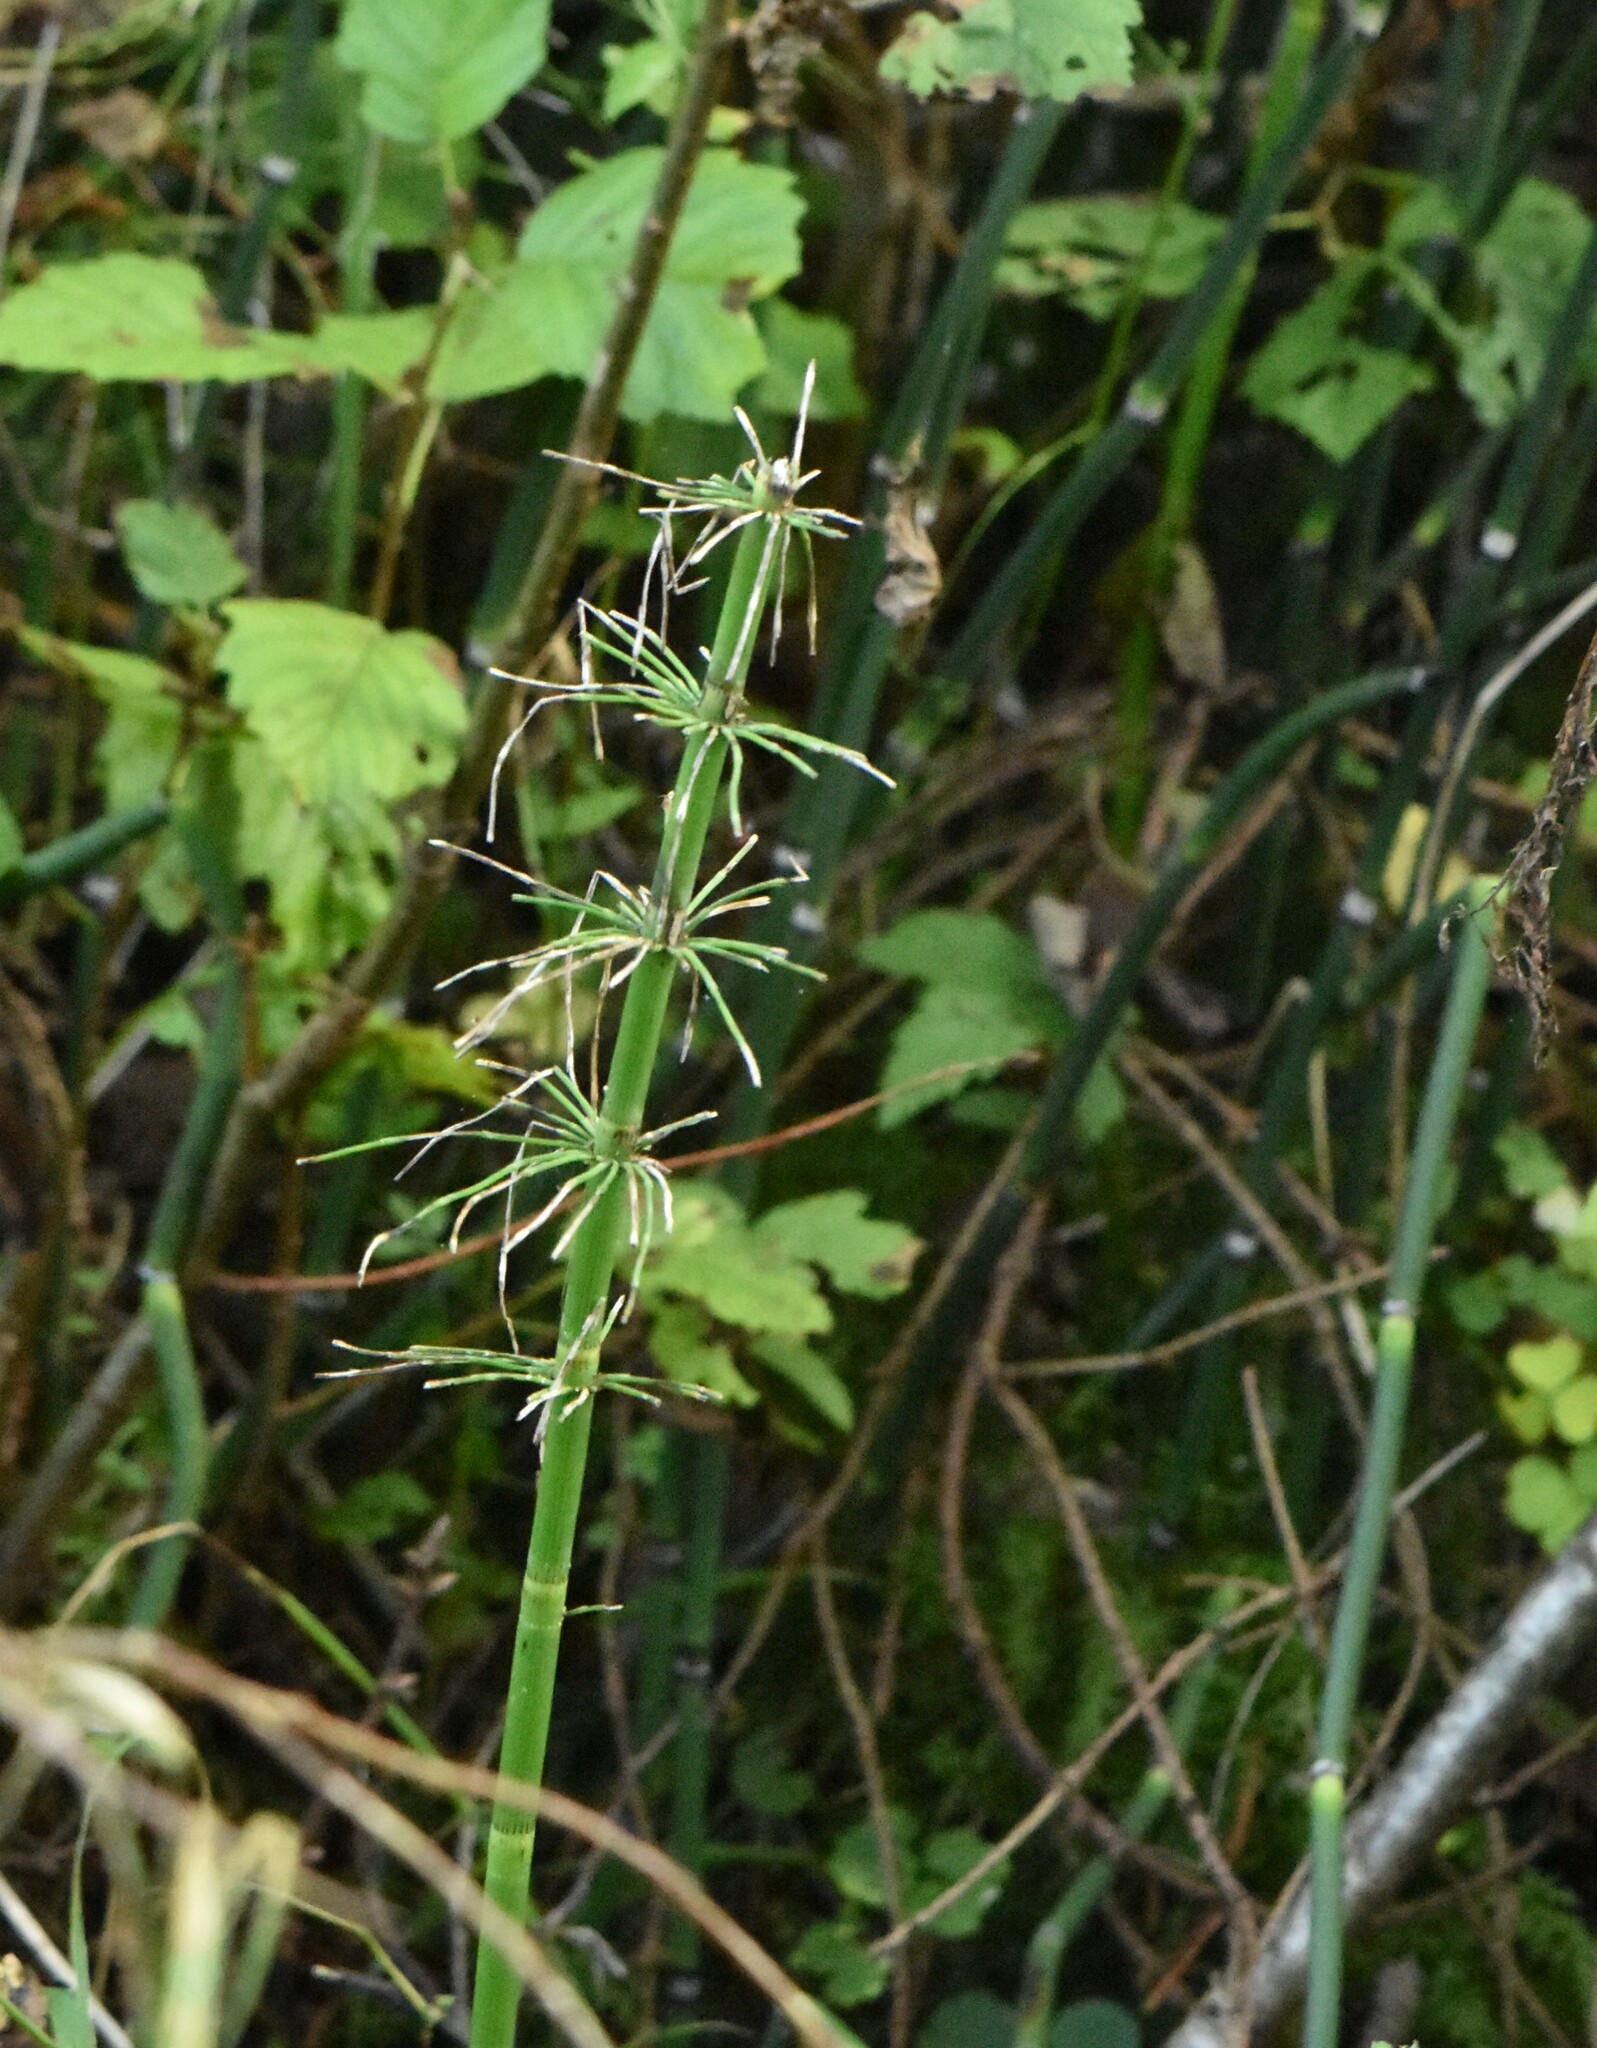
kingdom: Plantae
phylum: Tracheophyta
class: Polypodiopsida
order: Equisetales
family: Equisetaceae
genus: Equisetum
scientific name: Equisetum fluviatile
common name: Water horsetail
